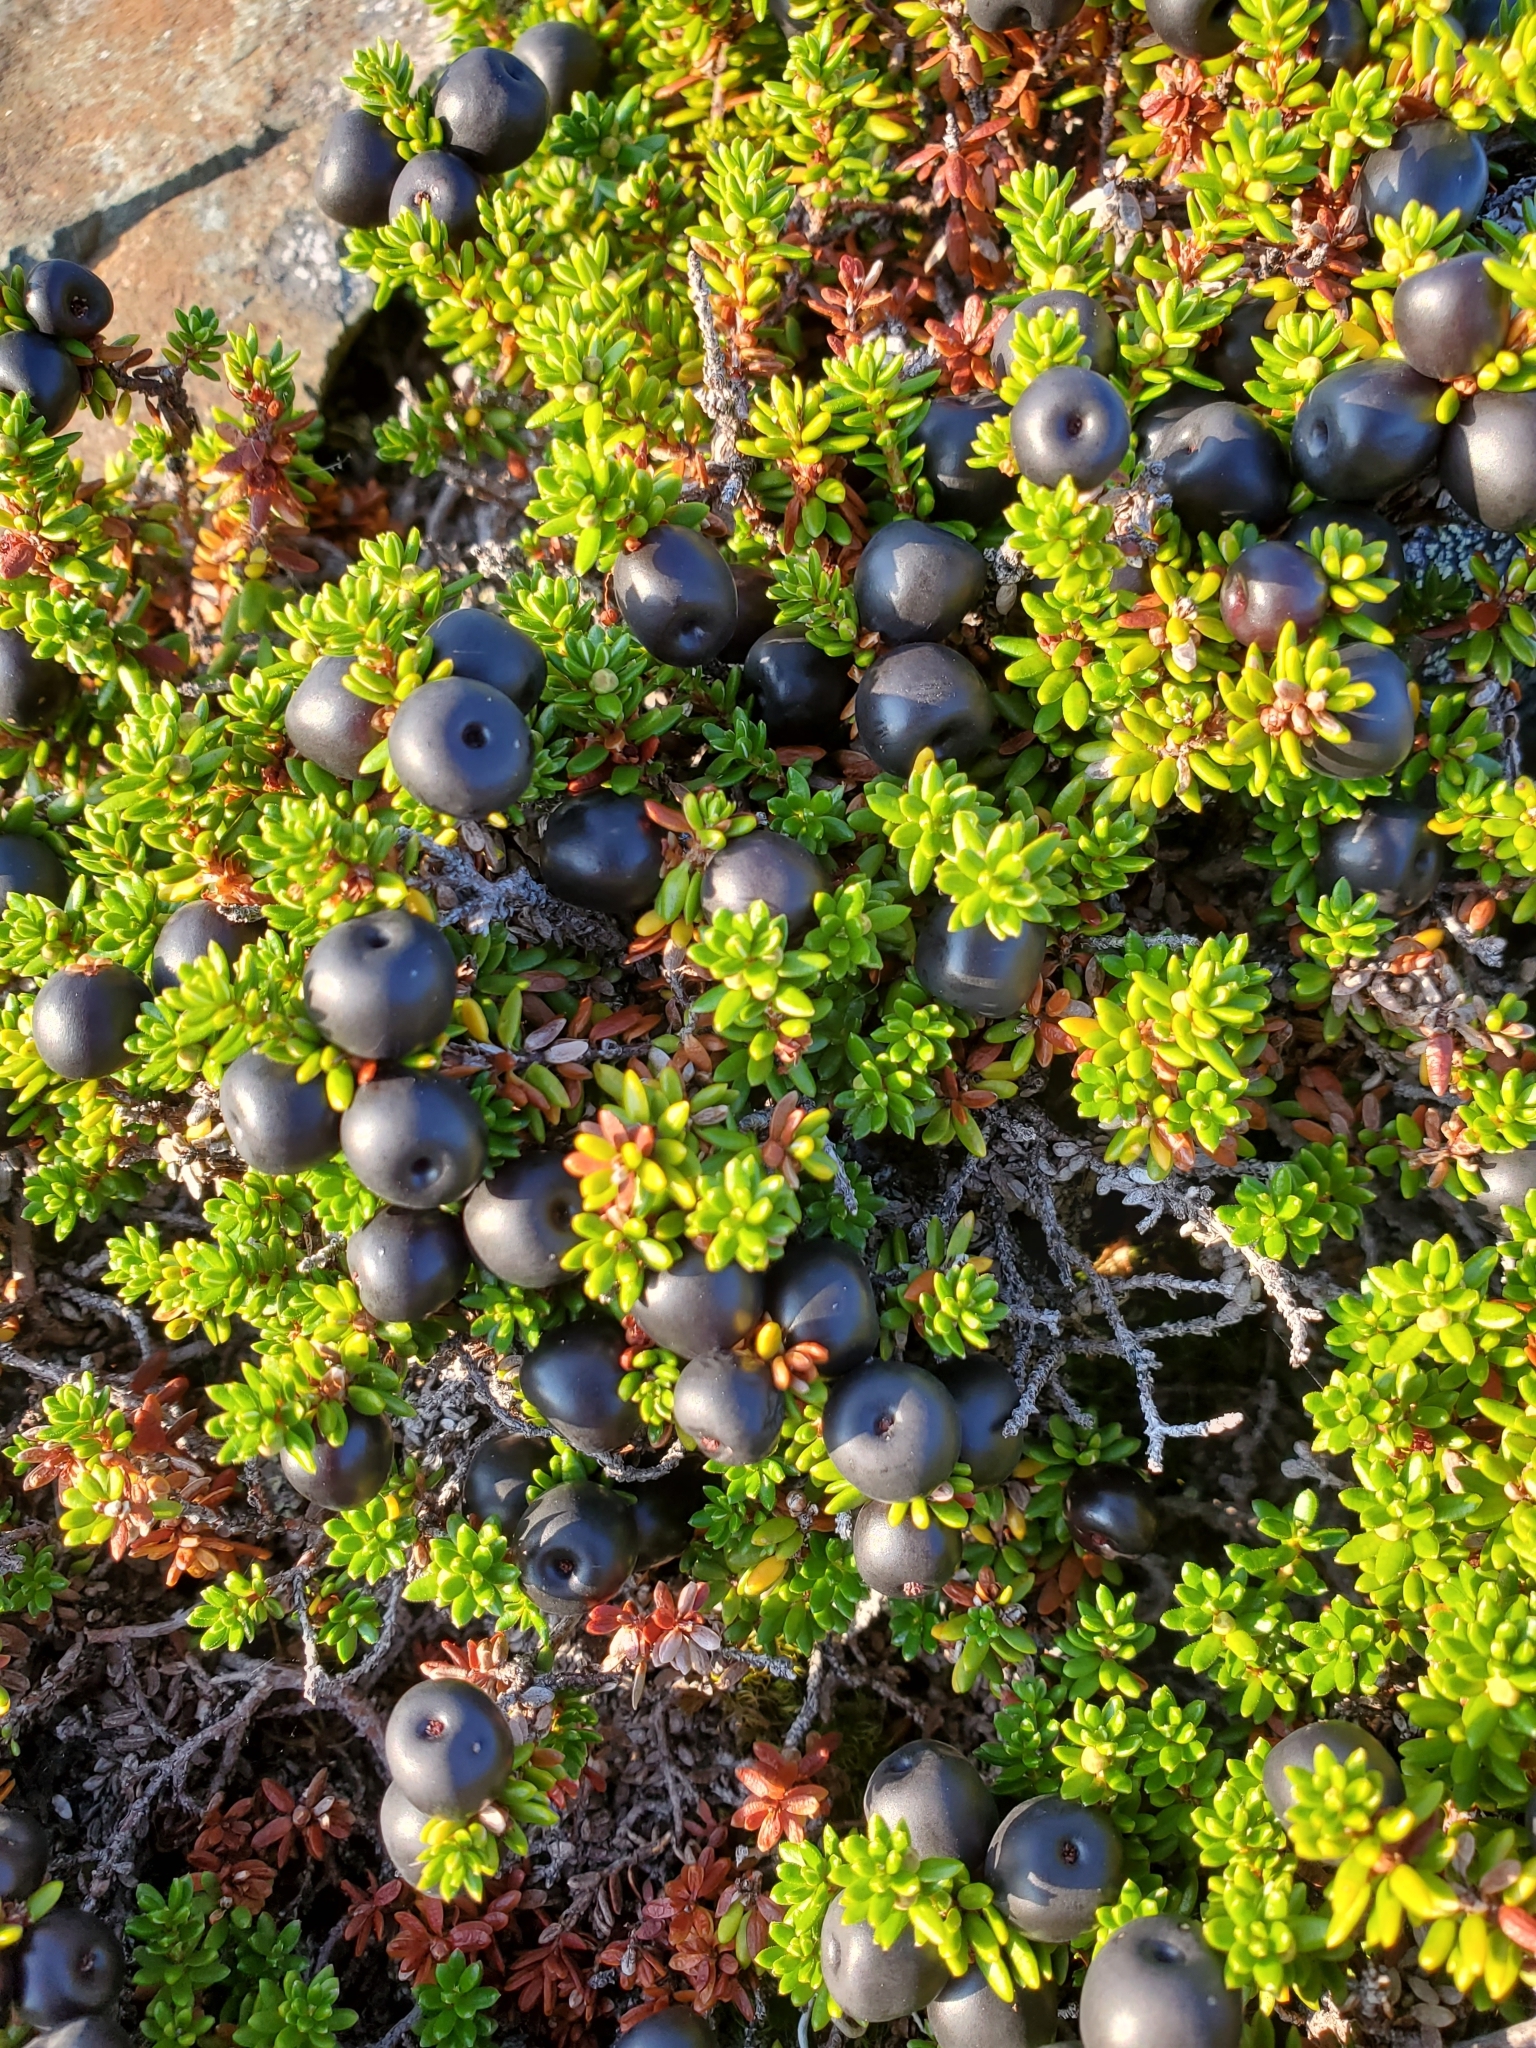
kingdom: Plantae
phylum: Tracheophyta
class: Magnoliopsida
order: Ericales
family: Ericaceae
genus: Empetrum
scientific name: Empetrum nigrum
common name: Black crowberry
